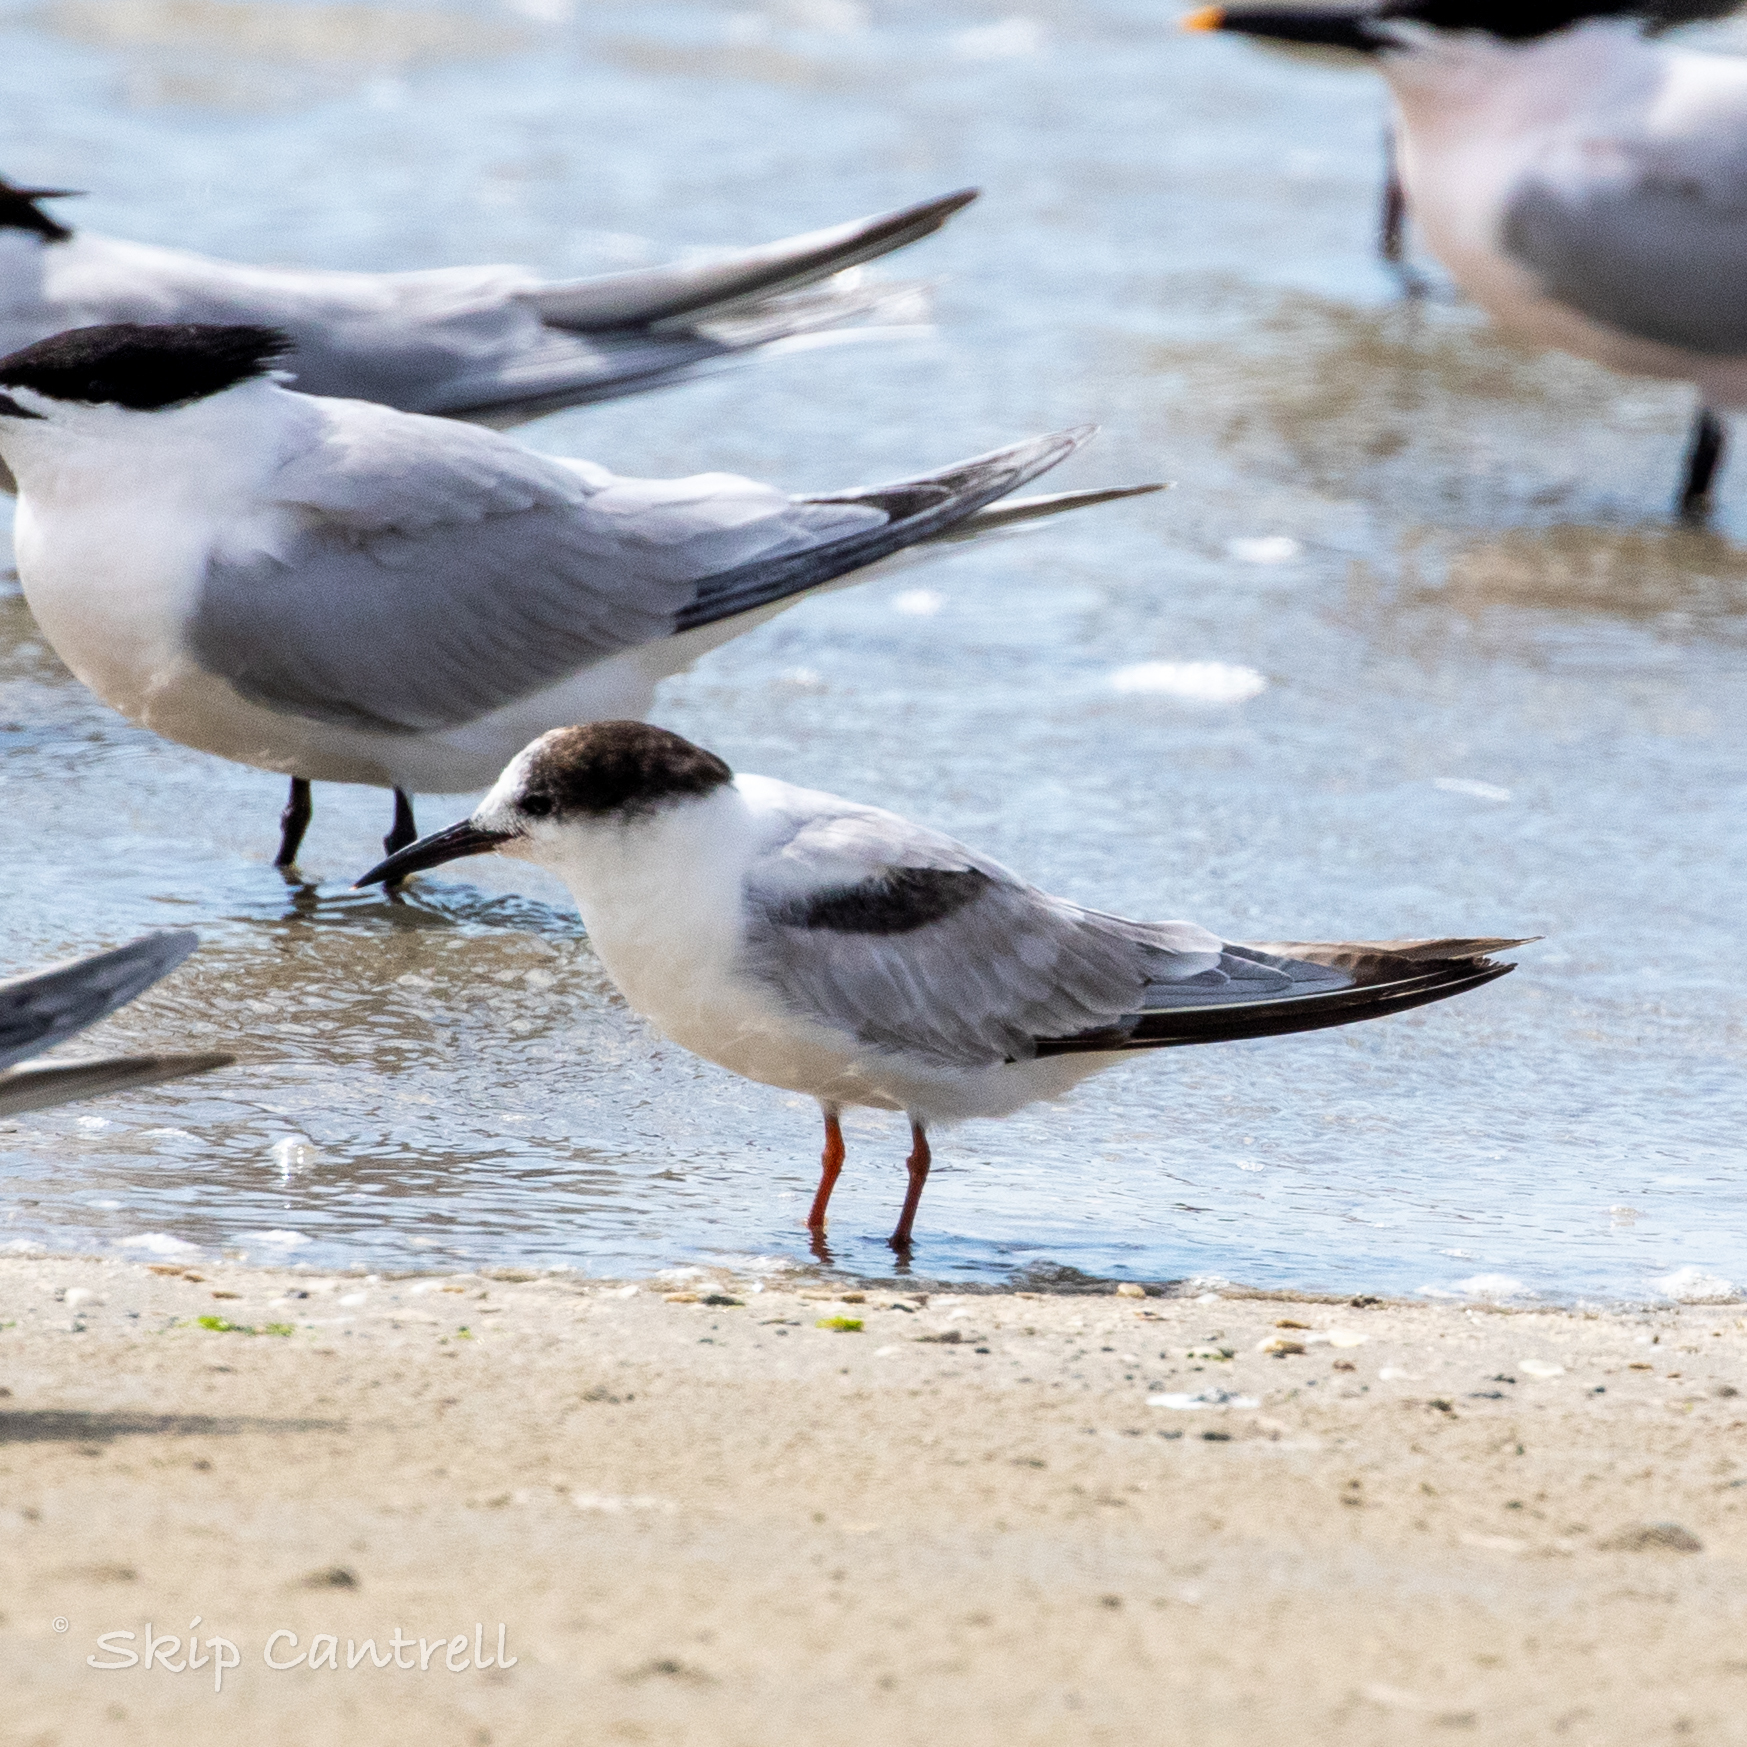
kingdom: Animalia
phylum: Chordata
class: Aves
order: Charadriiformes
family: Laridae
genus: Sterna
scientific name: Sterna hirundo
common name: Common tern
